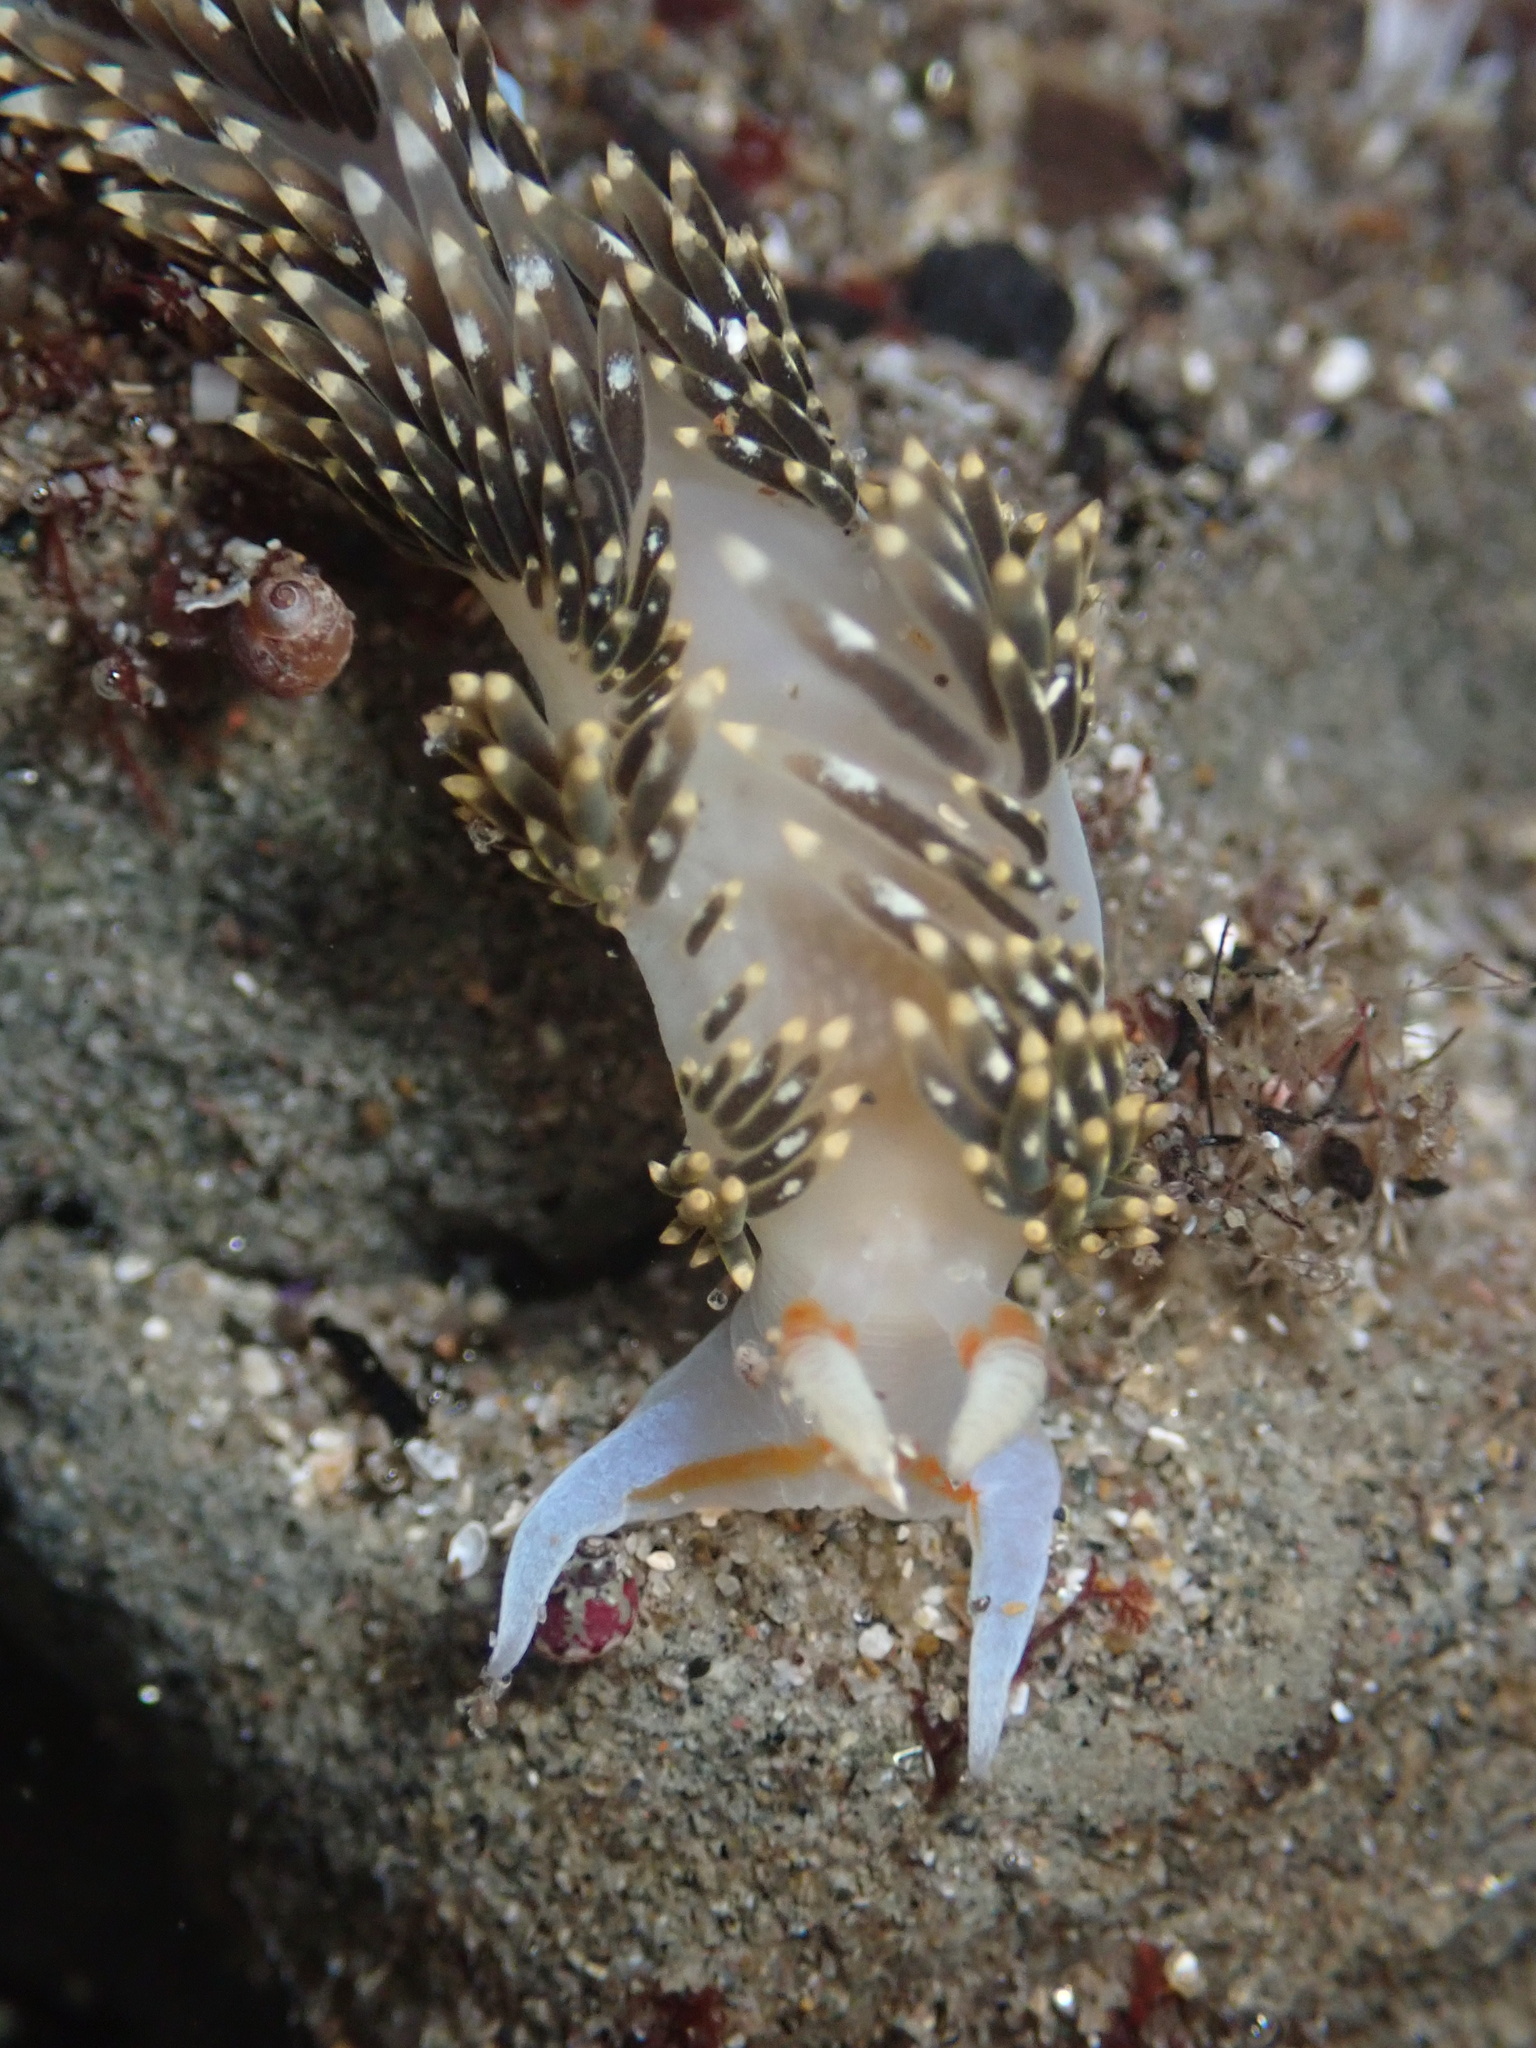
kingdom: Animalia
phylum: Mollusca
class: Gastropoda
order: Nudibranchia
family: Facelinidae
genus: Phidiana
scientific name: Phidiana hiltoni
